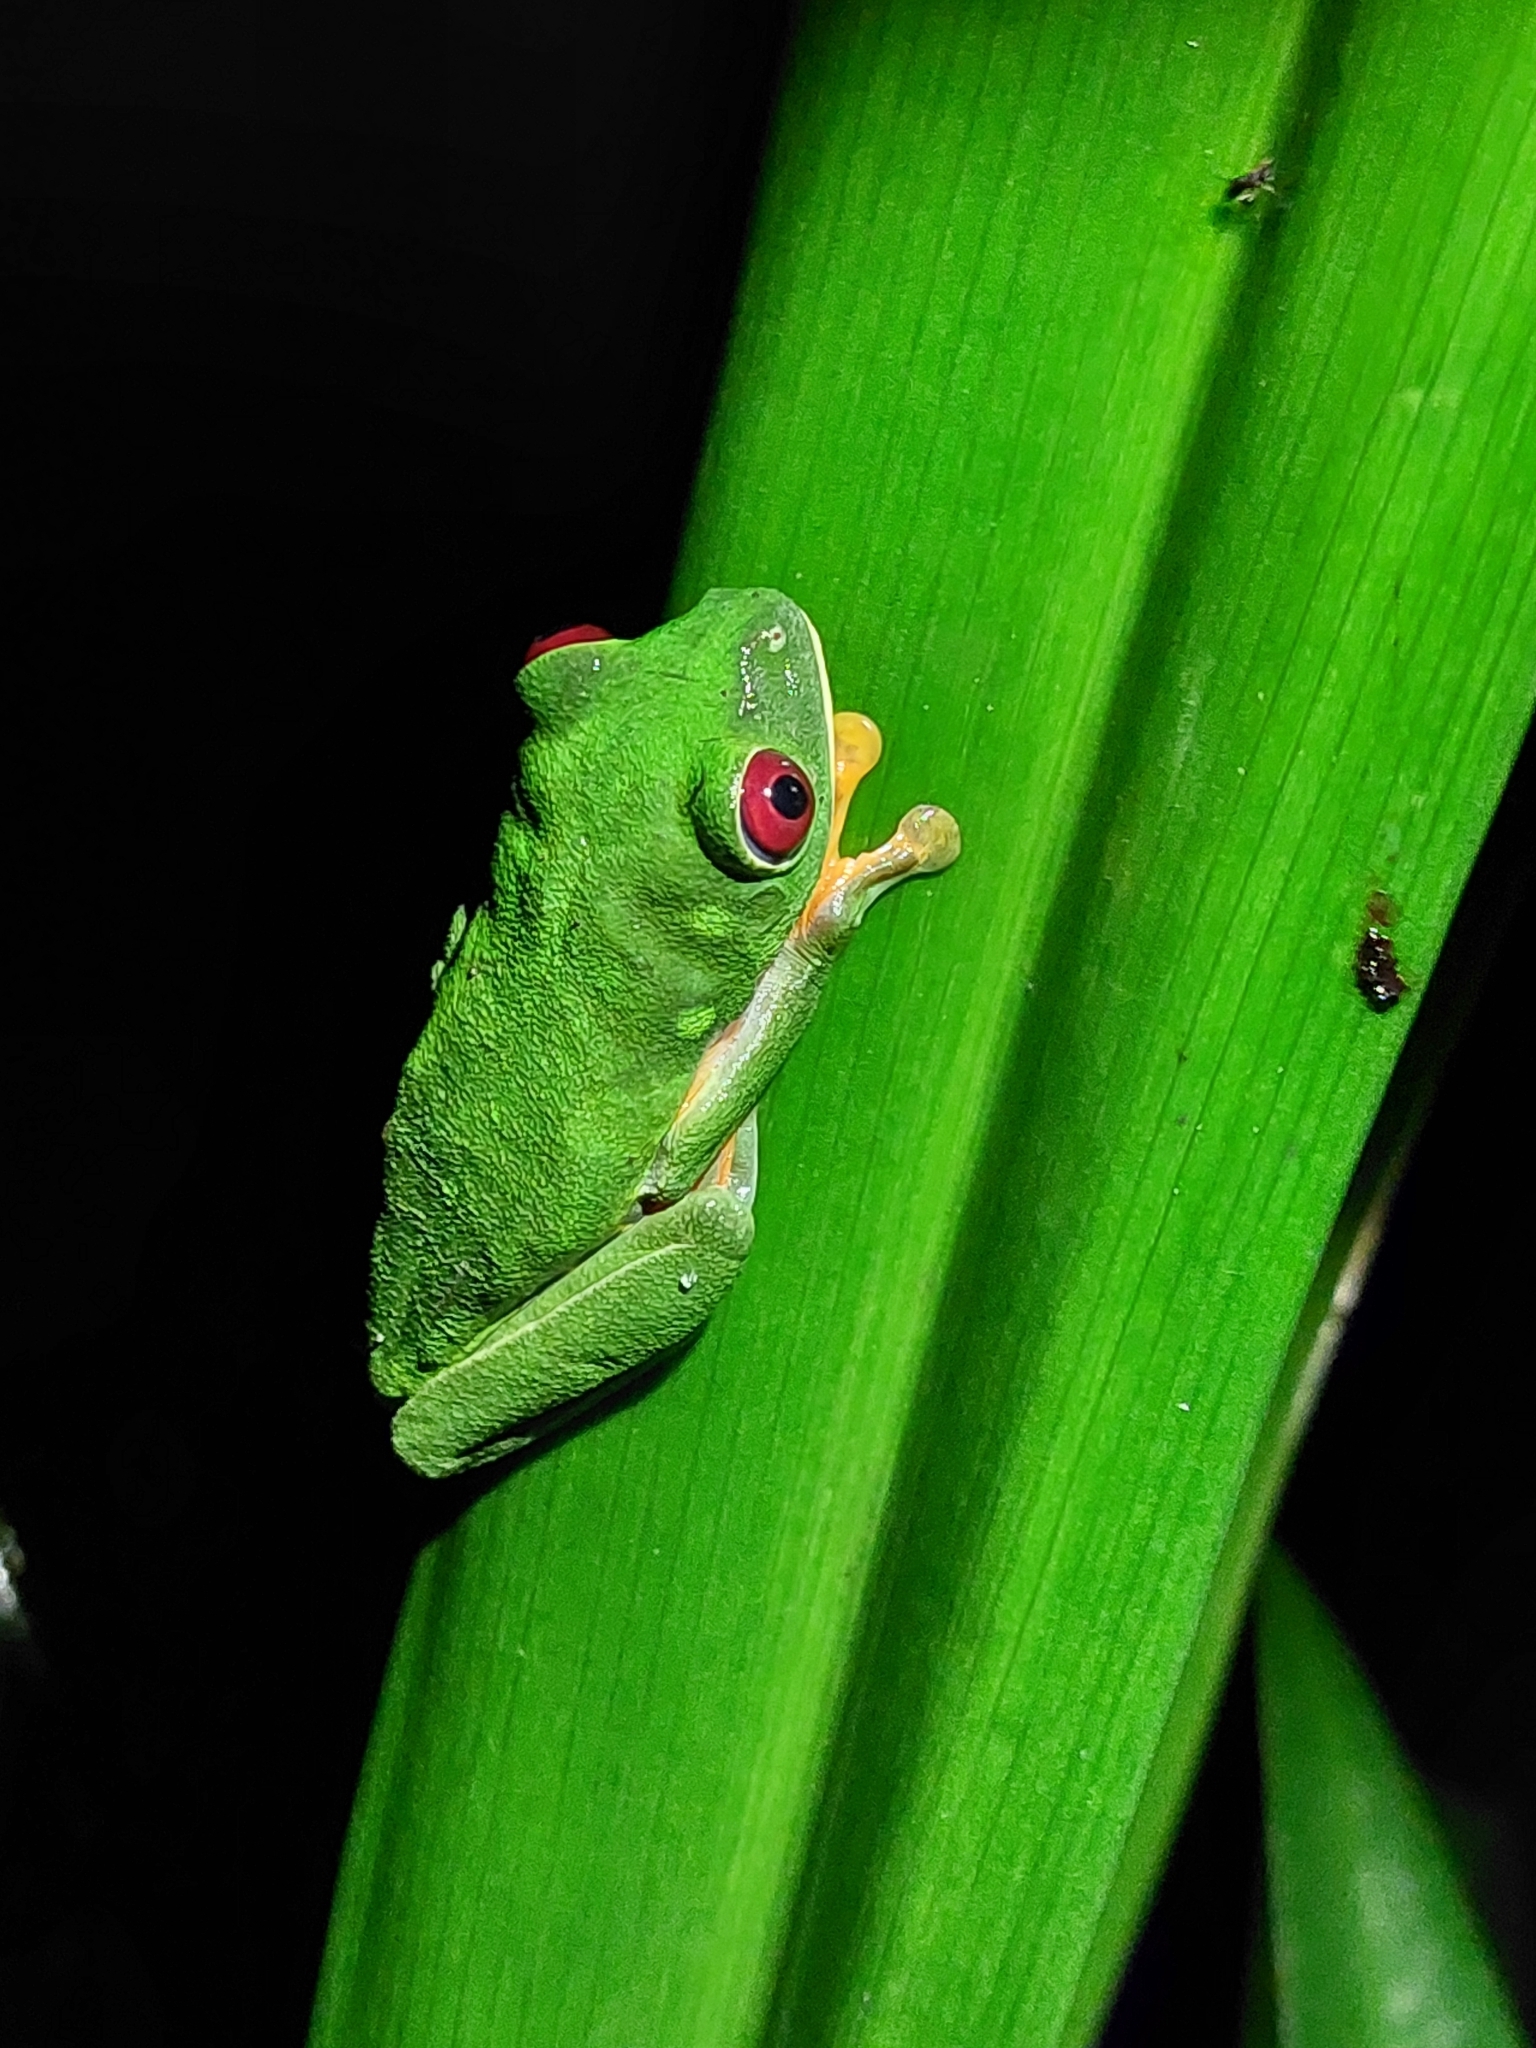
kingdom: Animalia
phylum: Chordata
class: Amphibia
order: Anura
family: Phyllomedusidae
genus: Agalychnis
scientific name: Agalychnis callidryas
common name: Red-eyed treefrog
